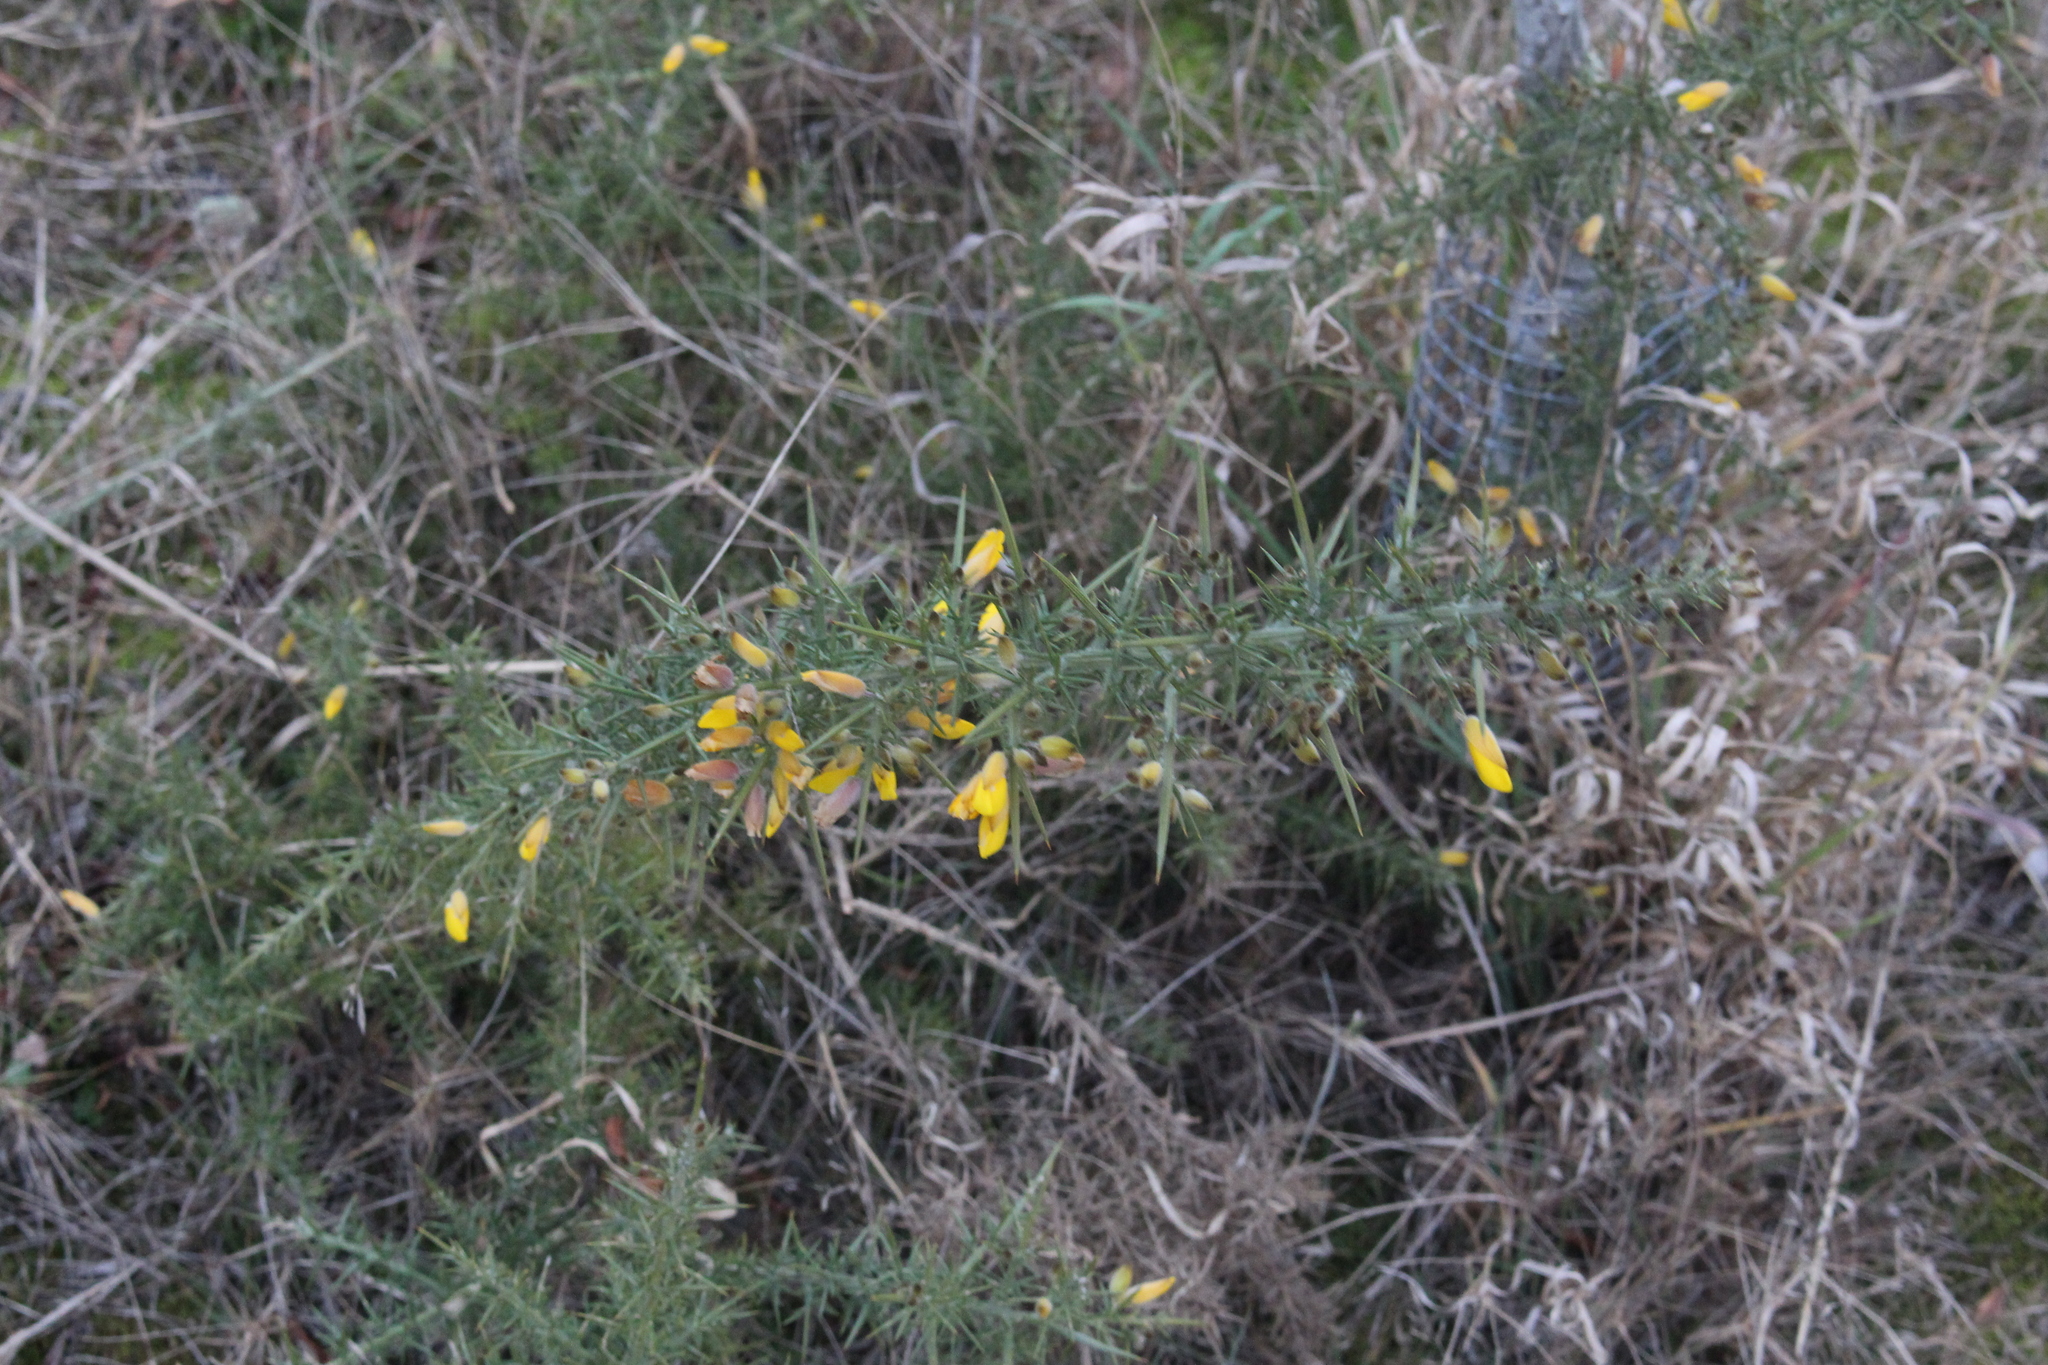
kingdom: Plantae
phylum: Tracheophyta
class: Magnoliopsida
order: Fabales
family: Fabaceae
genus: Ulex
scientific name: Ulex europaeus
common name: Common gorse
